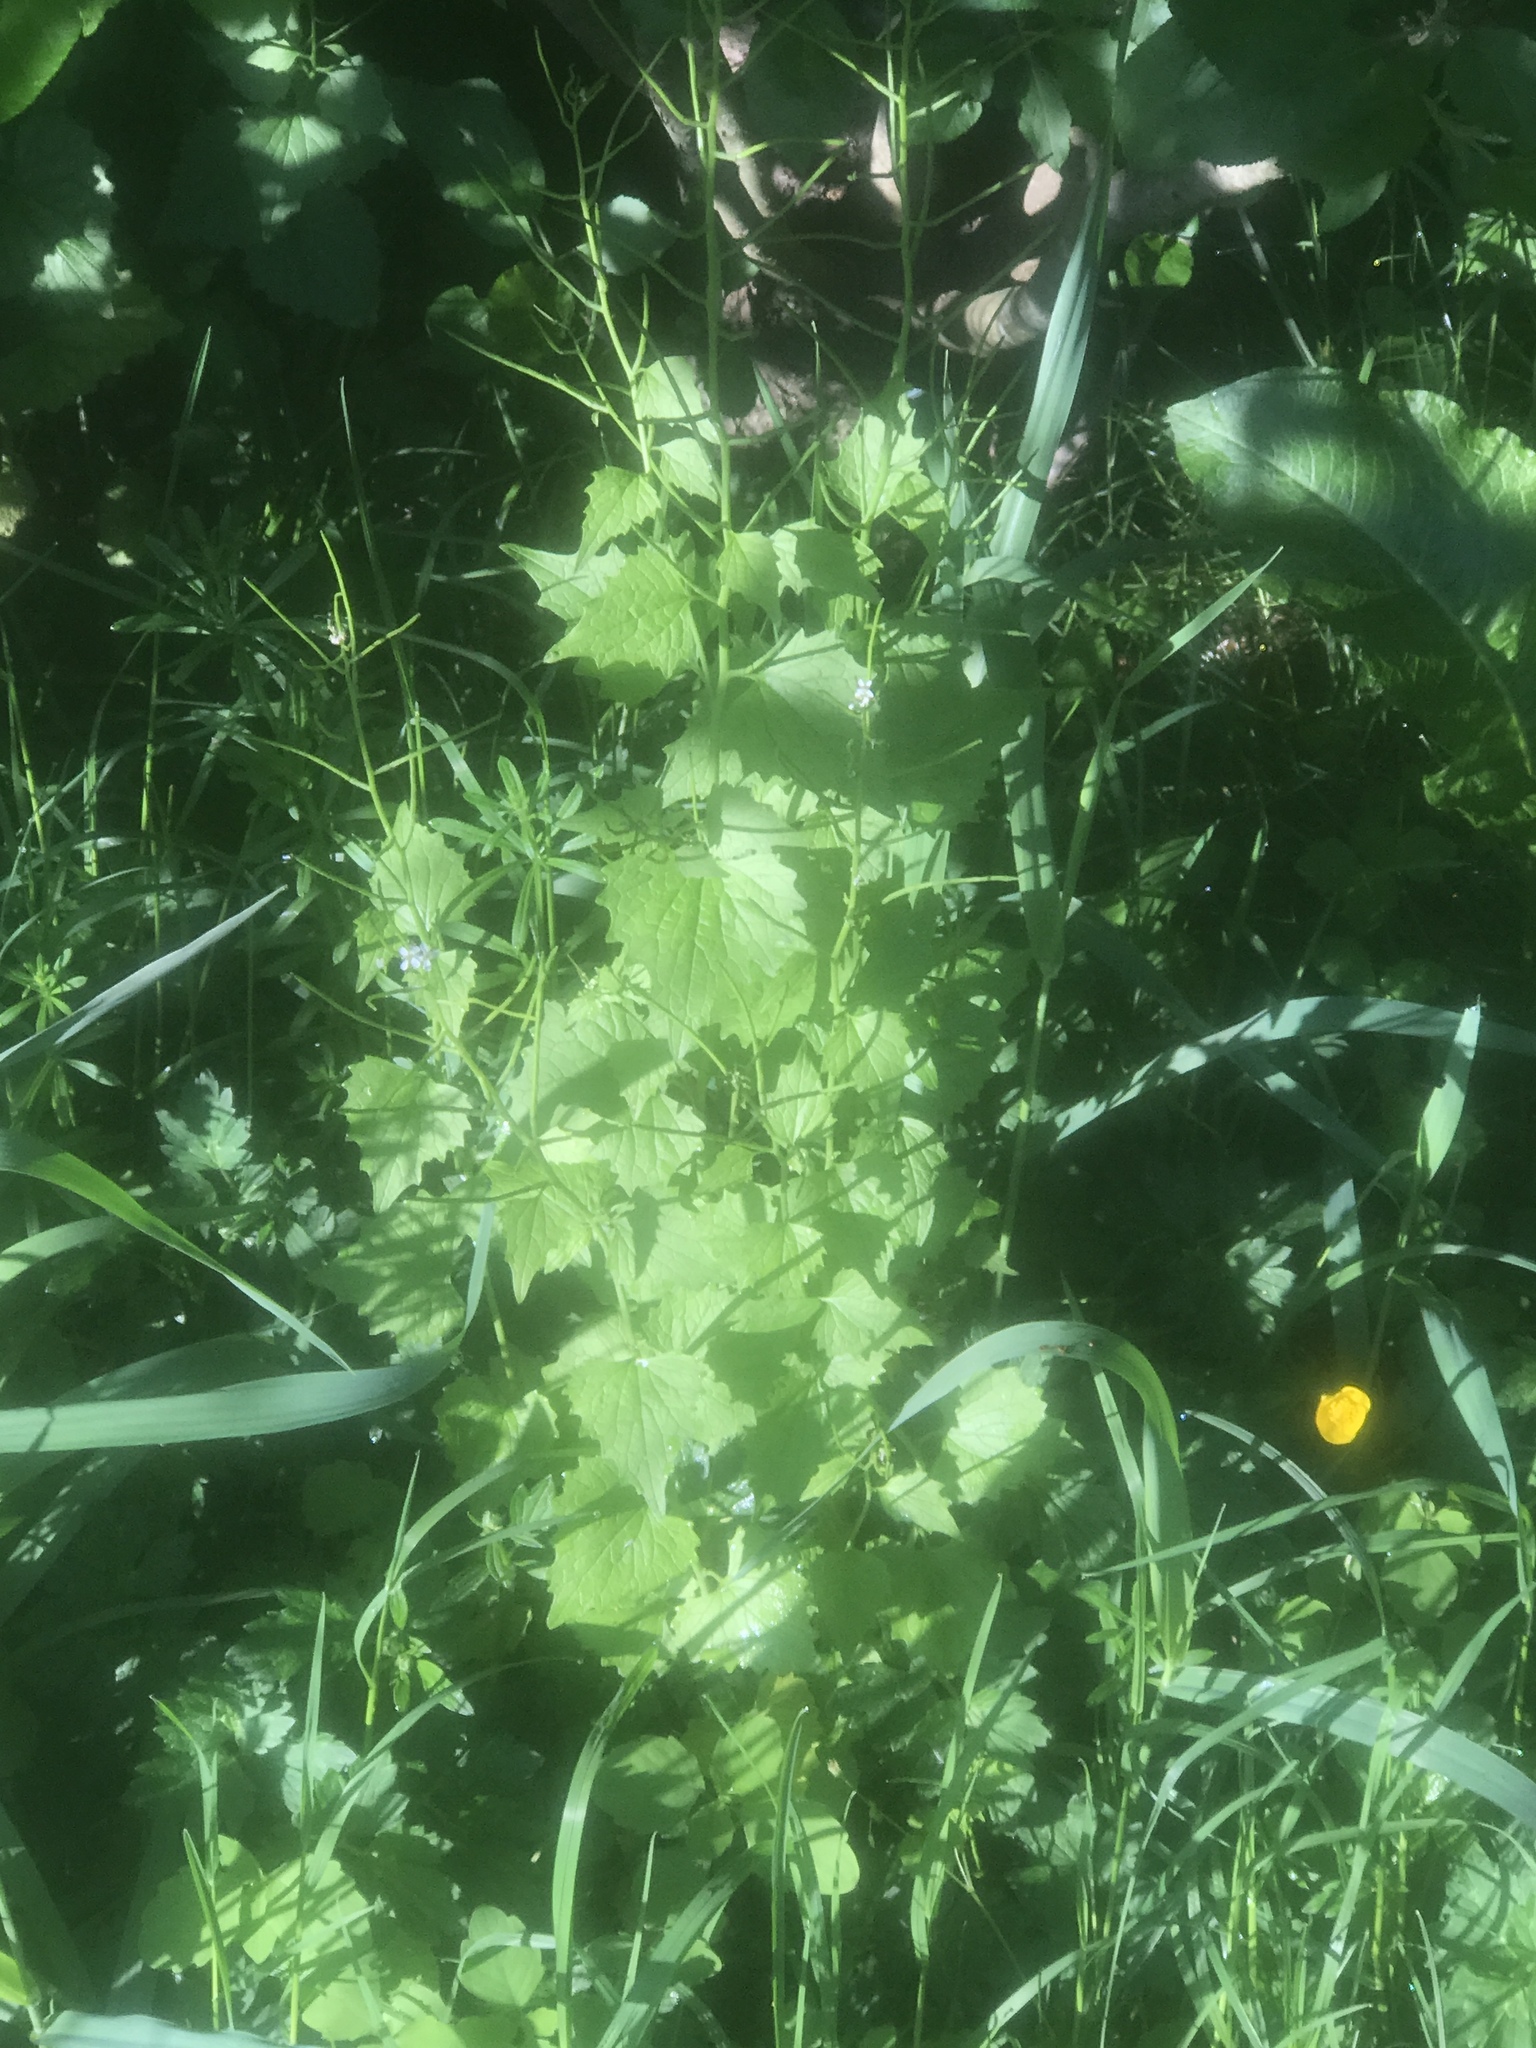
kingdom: Plantae
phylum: Tracheophyta
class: Magnoliopsida
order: Brassicales
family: Brassicaceae
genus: Alliaria
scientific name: Alliaria petiolata
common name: Garlic mustard
